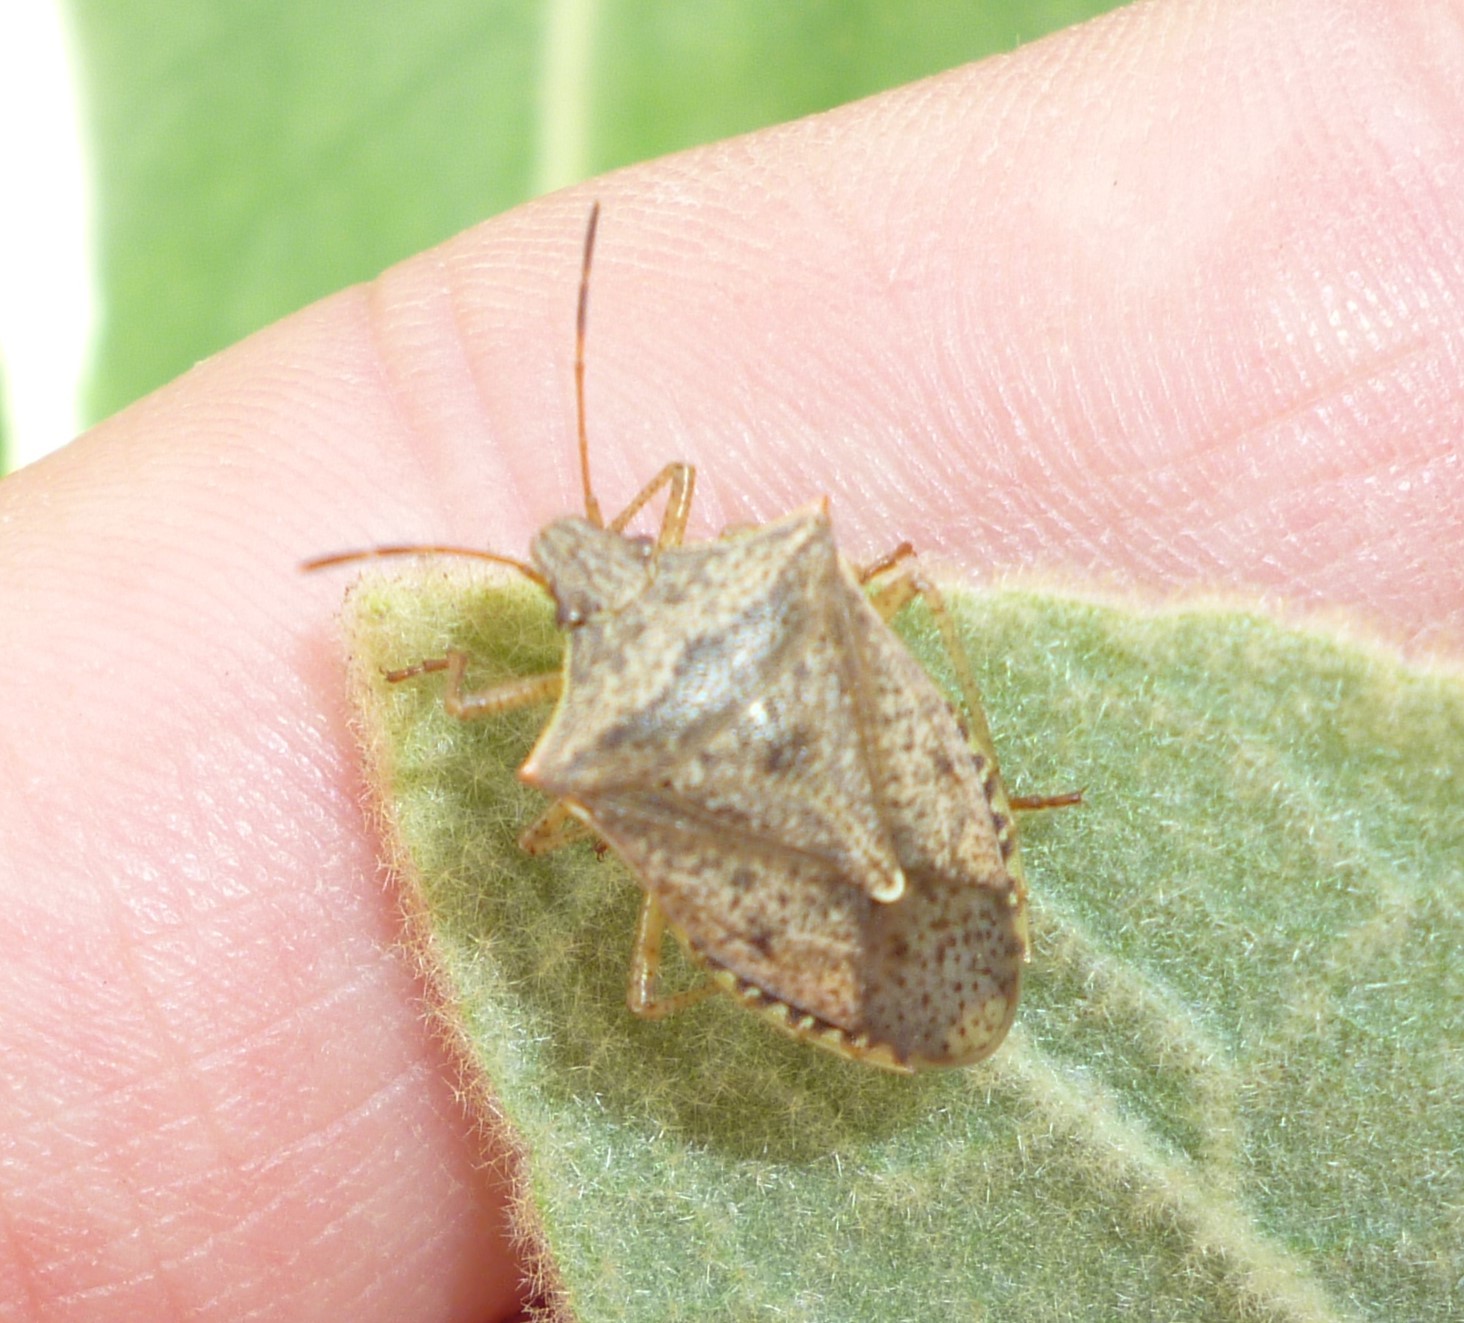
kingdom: Animalia
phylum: Arthropoda
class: Insecta
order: Hemiptera
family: Pentatomidae
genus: Euschistus
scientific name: Euschistus variolarius
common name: Onespotted stink bug
